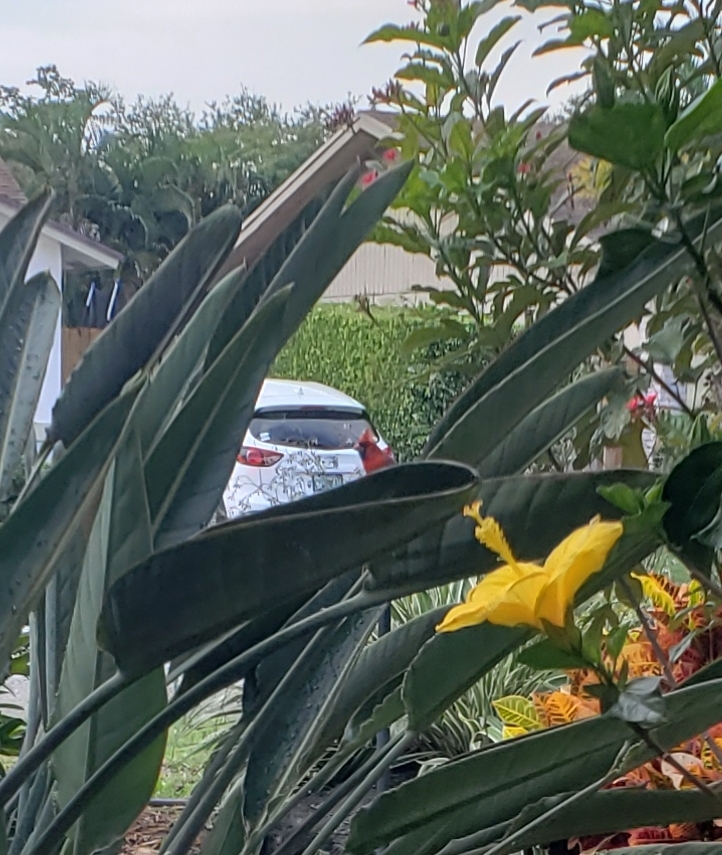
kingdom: Animalia
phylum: Chordata
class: Aves
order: Passeriformes
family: Cardinalidae
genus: Cardinalis
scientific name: Cardinalis cardinalis
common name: Northern cardinal
